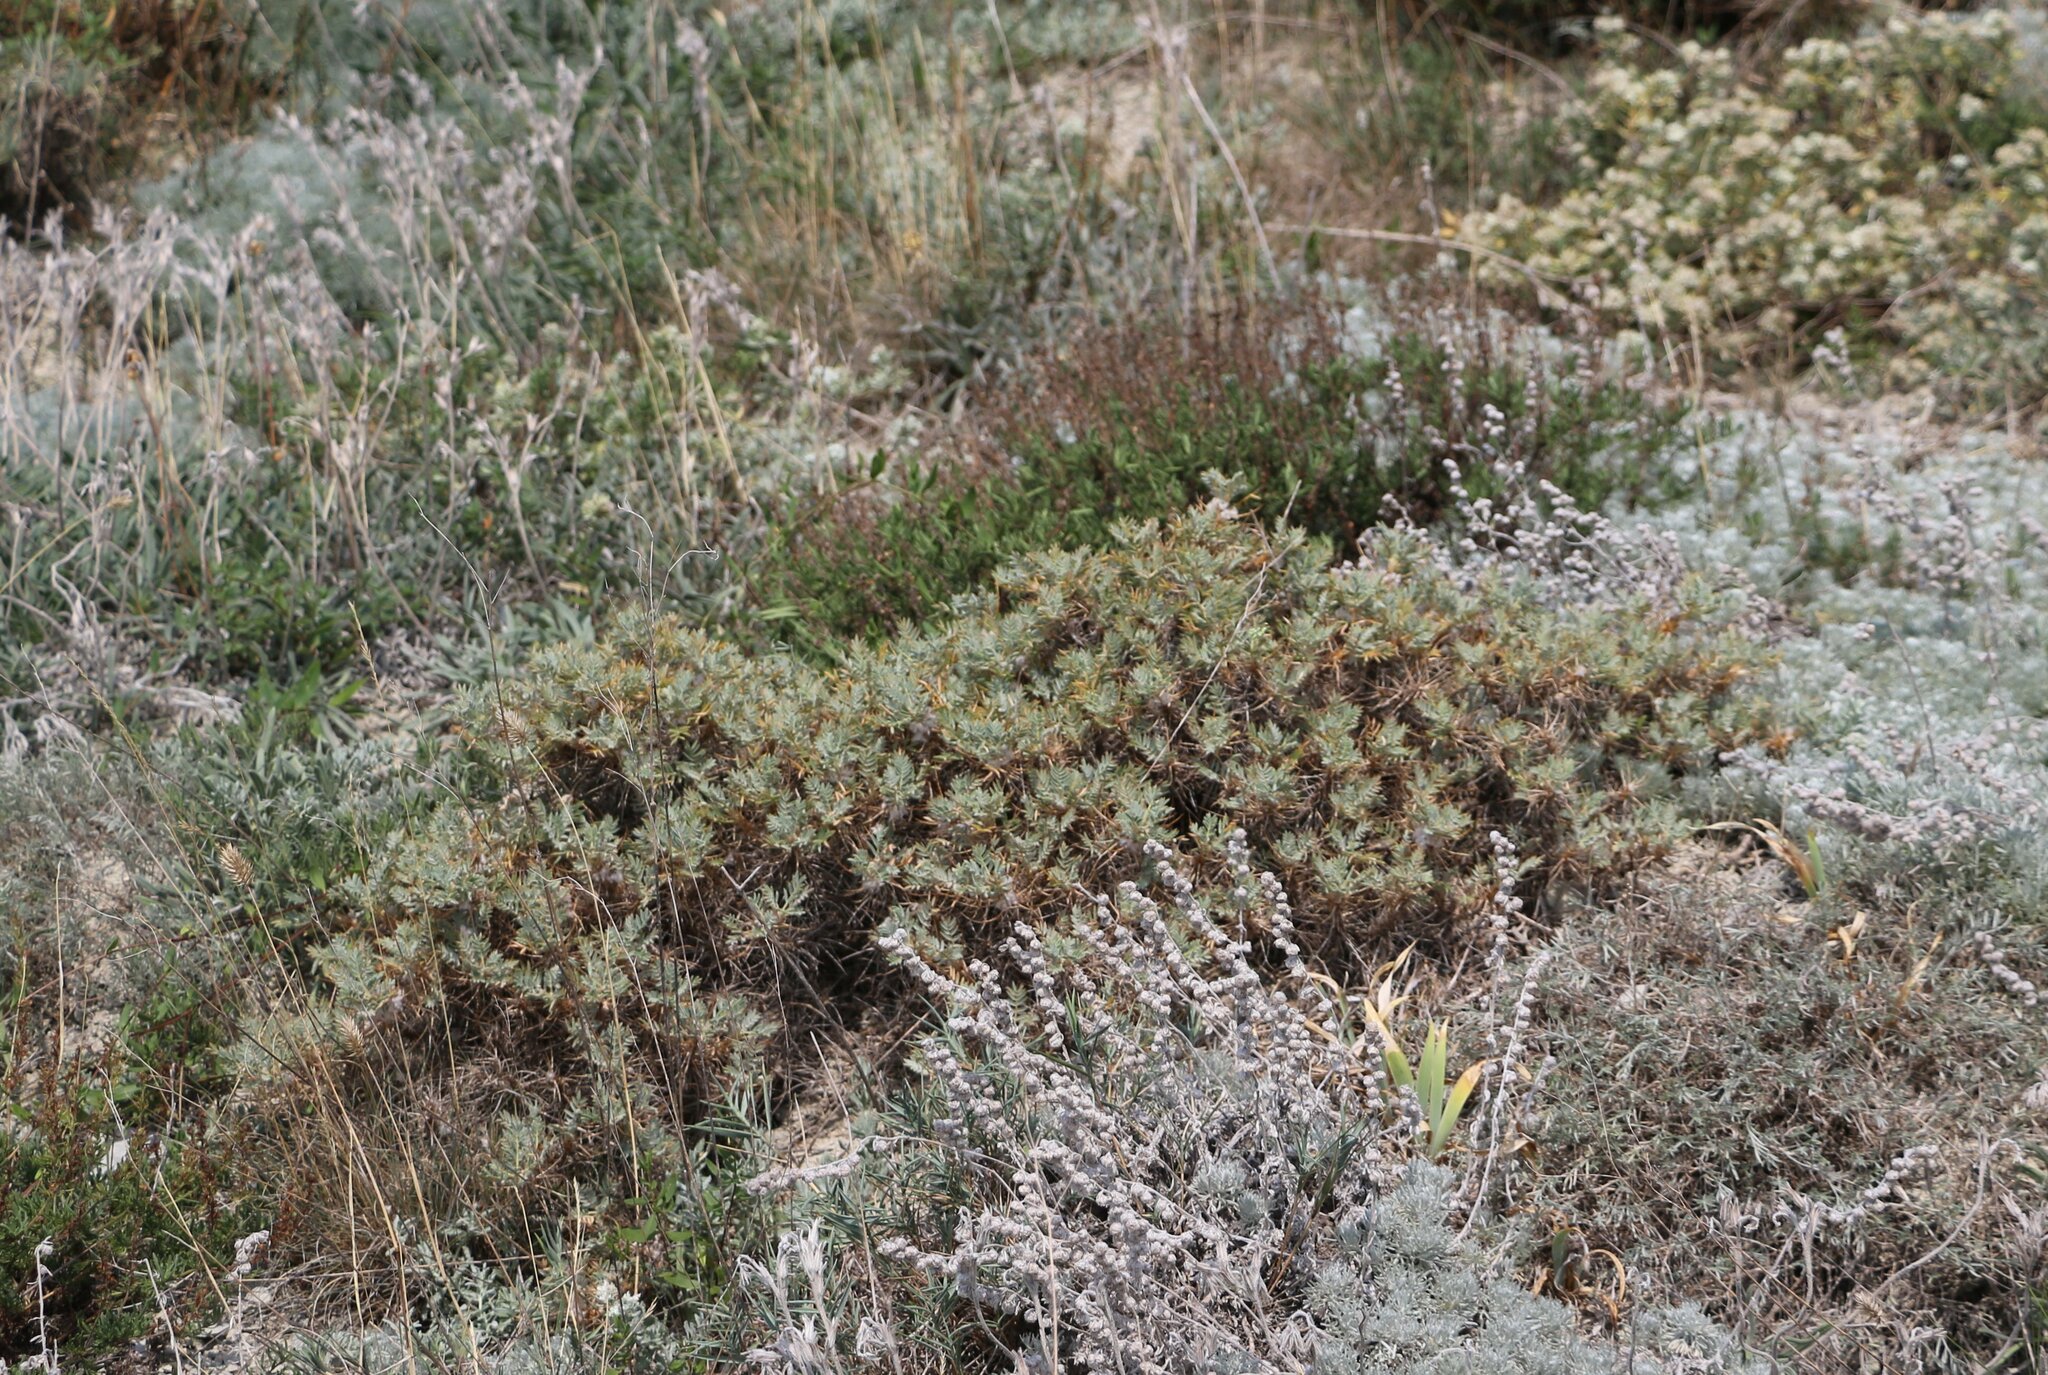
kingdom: Plantae
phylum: Tracheophyta
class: Magnoliopsida
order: Fabales
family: Fabaceae
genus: Astragalus
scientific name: Astragalus arnacanthoides
